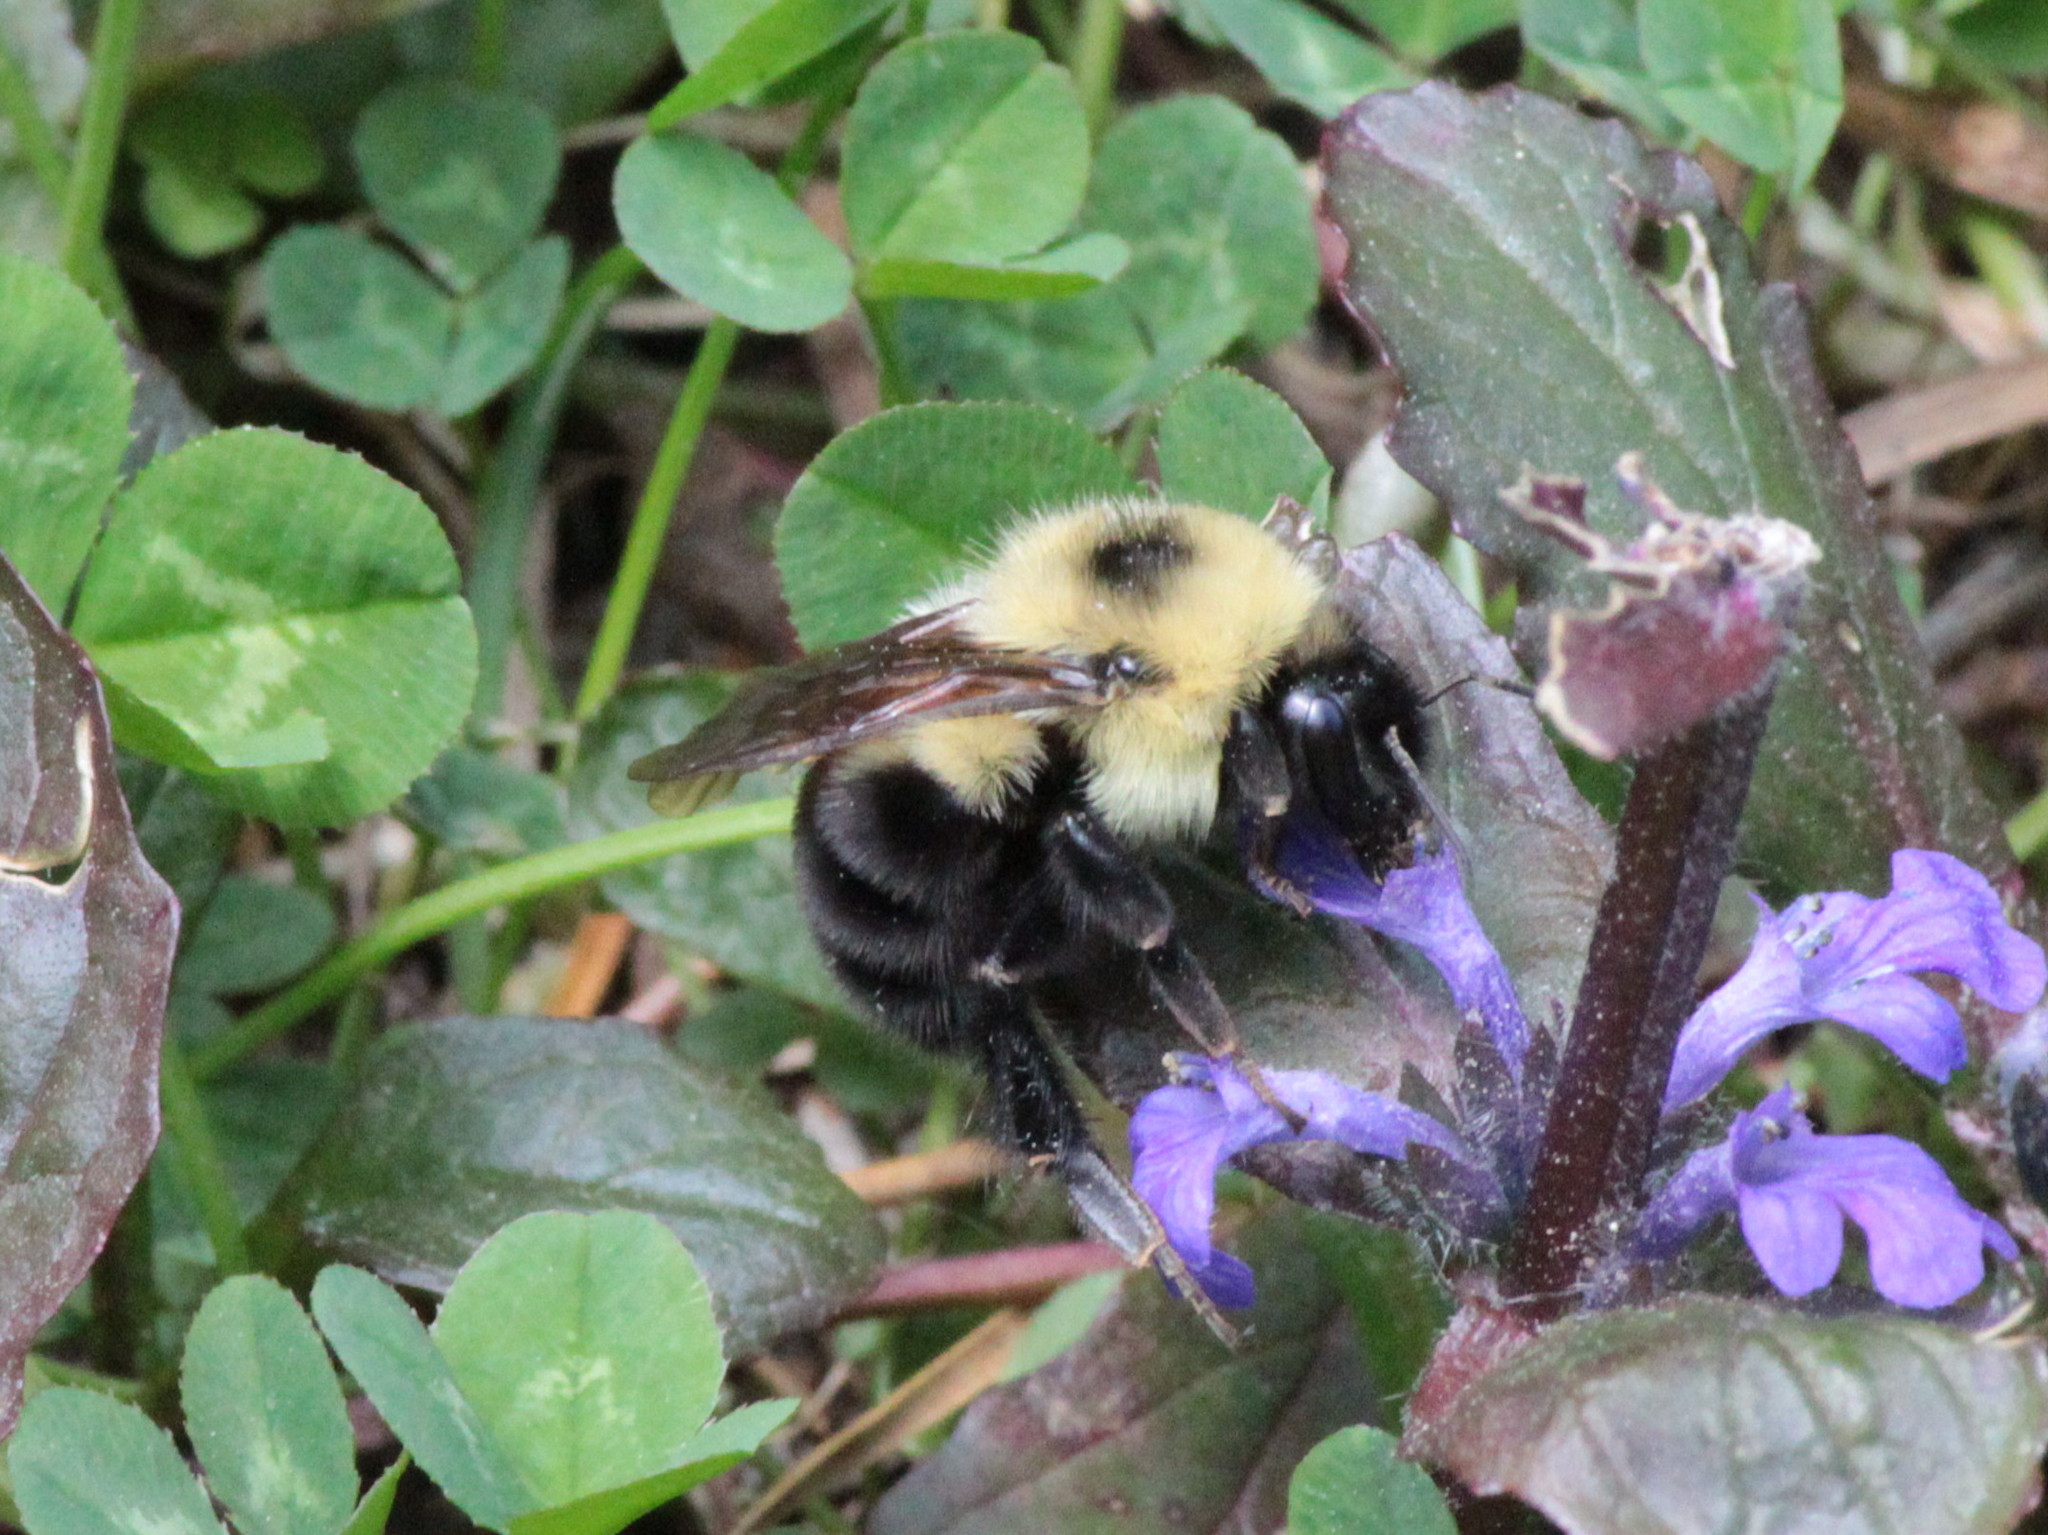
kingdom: Animalia
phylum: Arthropoda
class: Insecta
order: Hymenoptera
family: Apidae
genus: Bombus
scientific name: Bombus bimaculatus
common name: Two-spotted bumble bee
